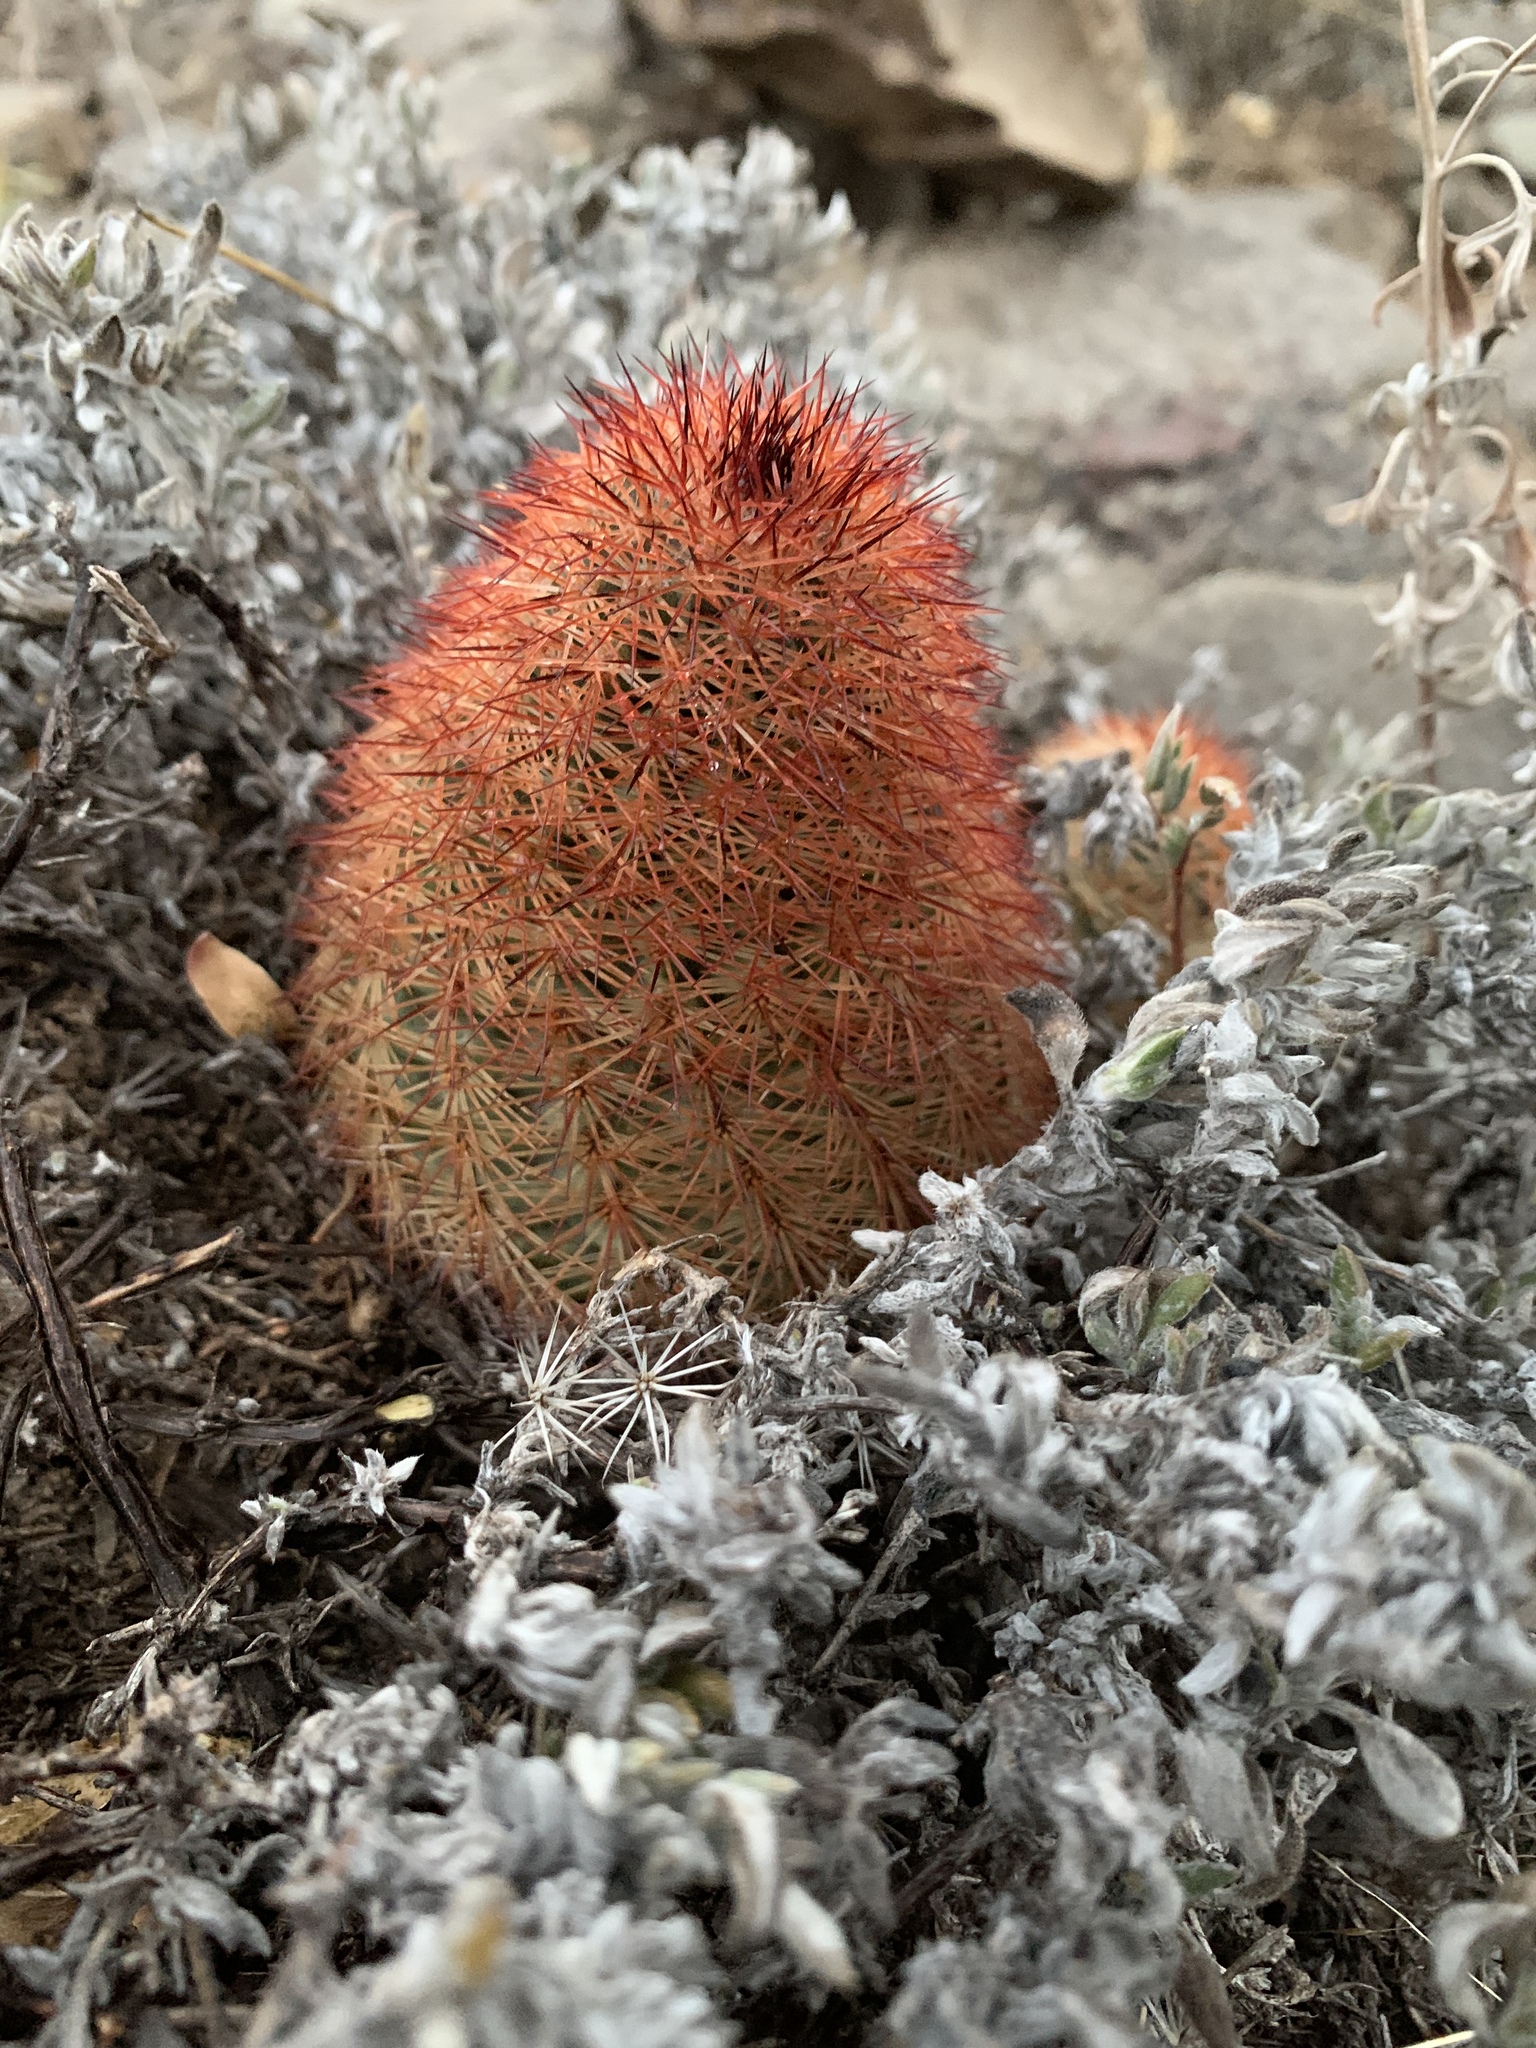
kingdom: Plantae
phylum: Tracheophyta
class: Magnoliopsida
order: Caryophyllales
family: Cactaceae
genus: Echinocereus
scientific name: Echinocereus dasyacanthus
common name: Spiny hedgehog cactus
